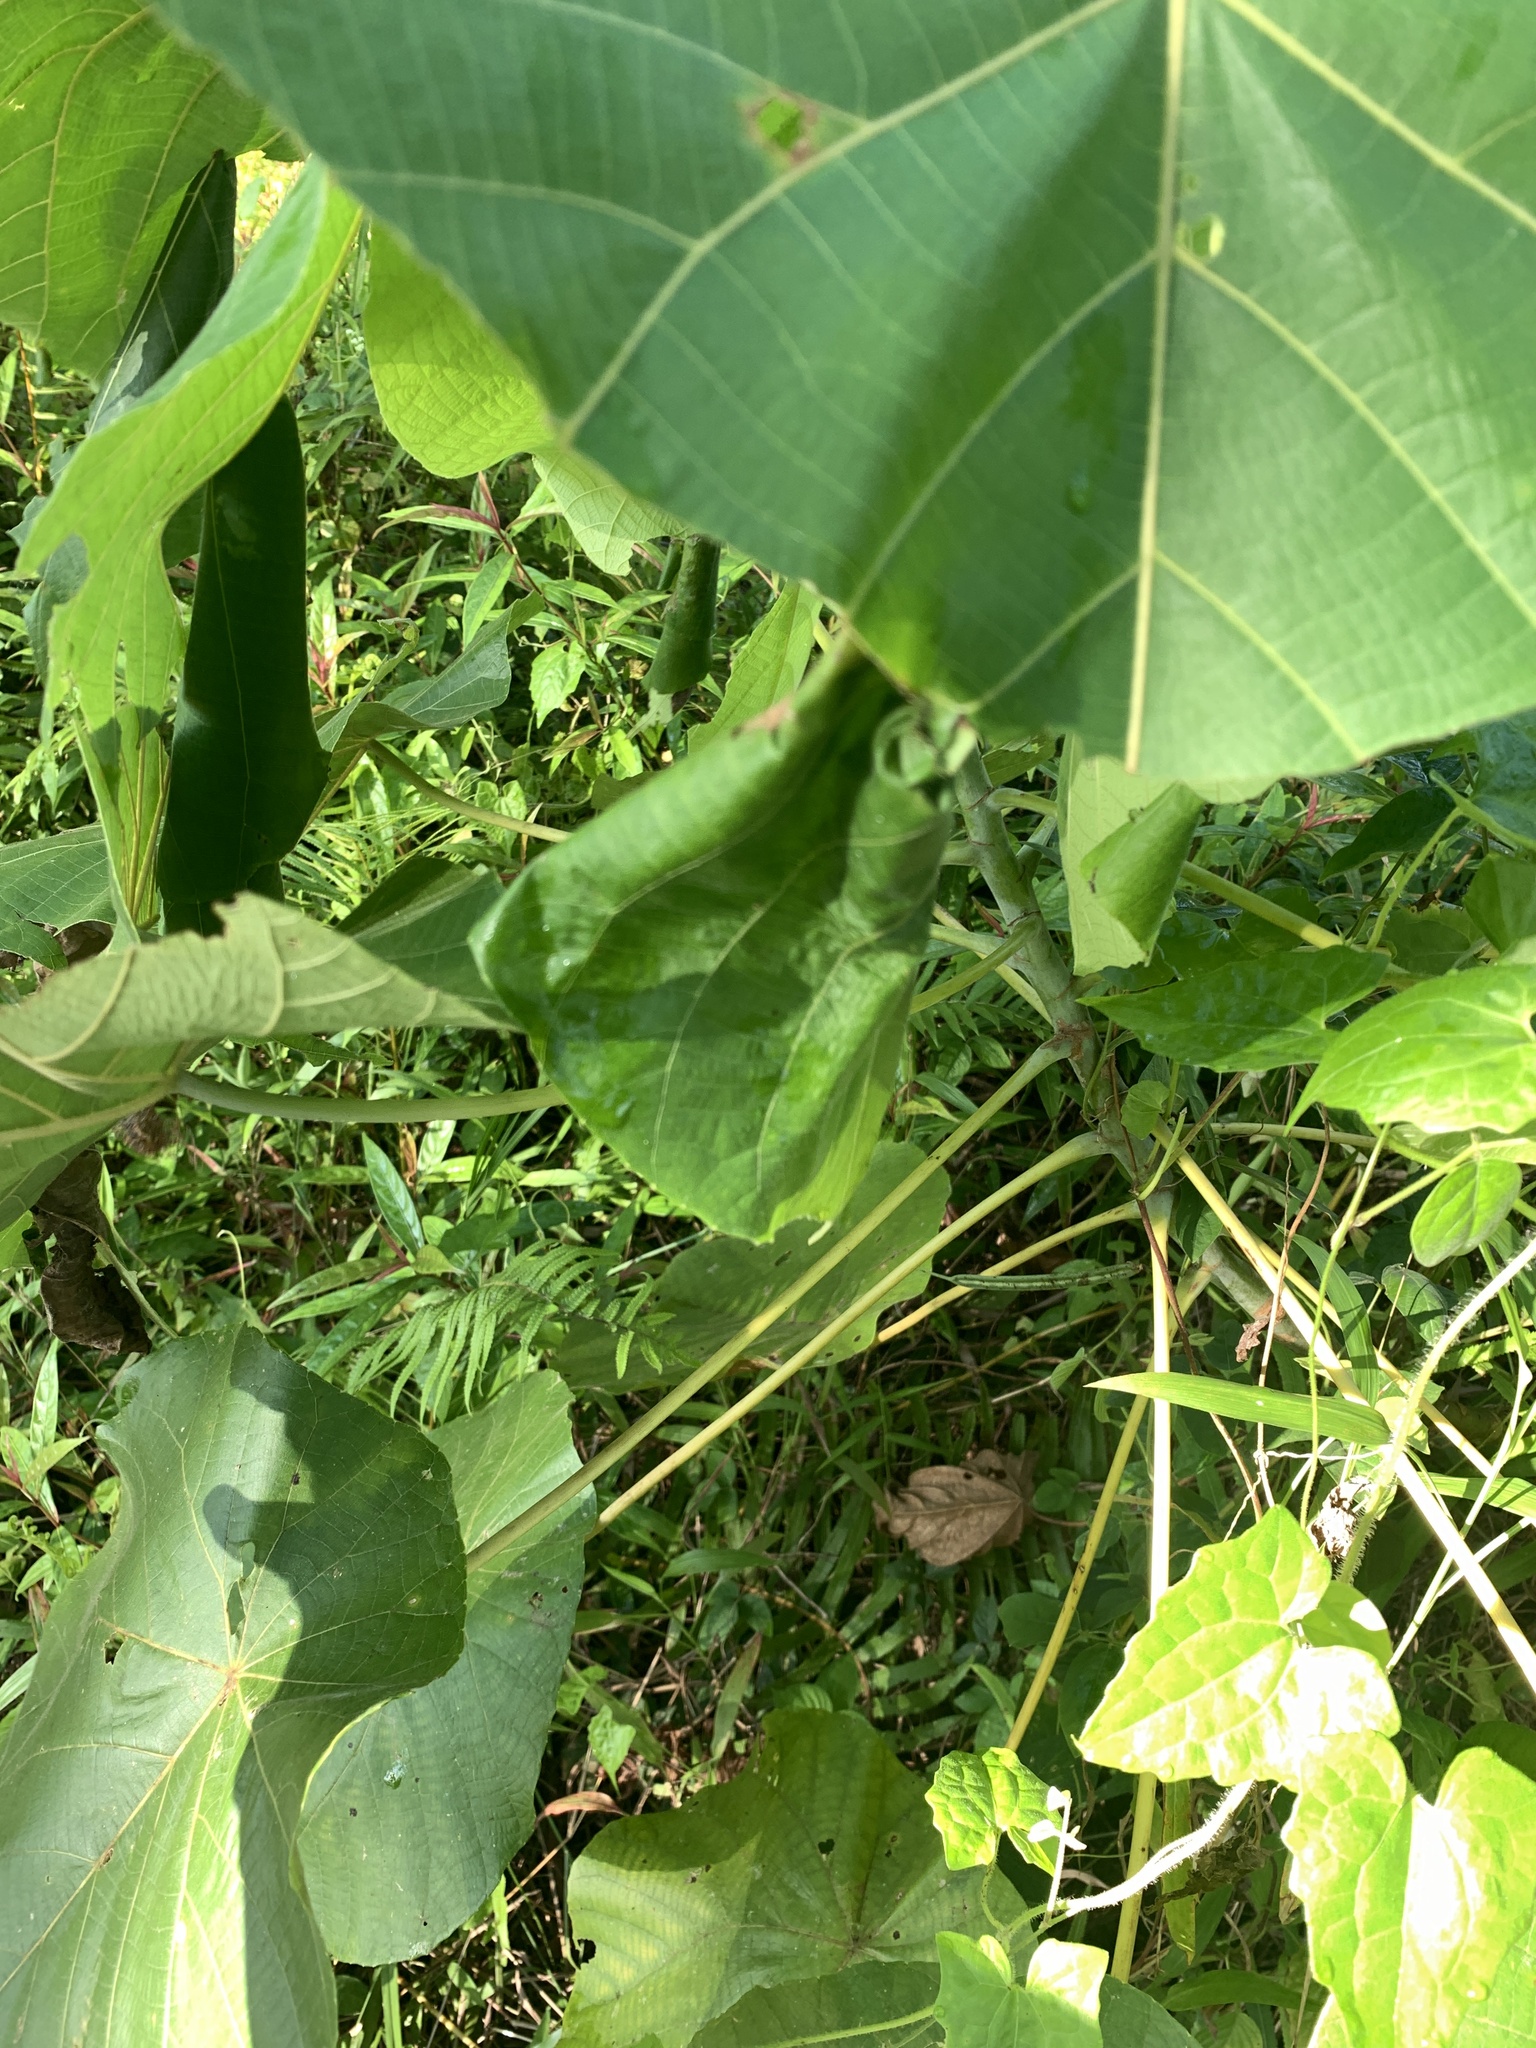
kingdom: Plantae
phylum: Tracheophyta
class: Magnoliopsida
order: Malpighiales
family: Euphorbiaceae
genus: Macaranga
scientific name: Macaranga tanarius
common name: Parasol leaf tree
